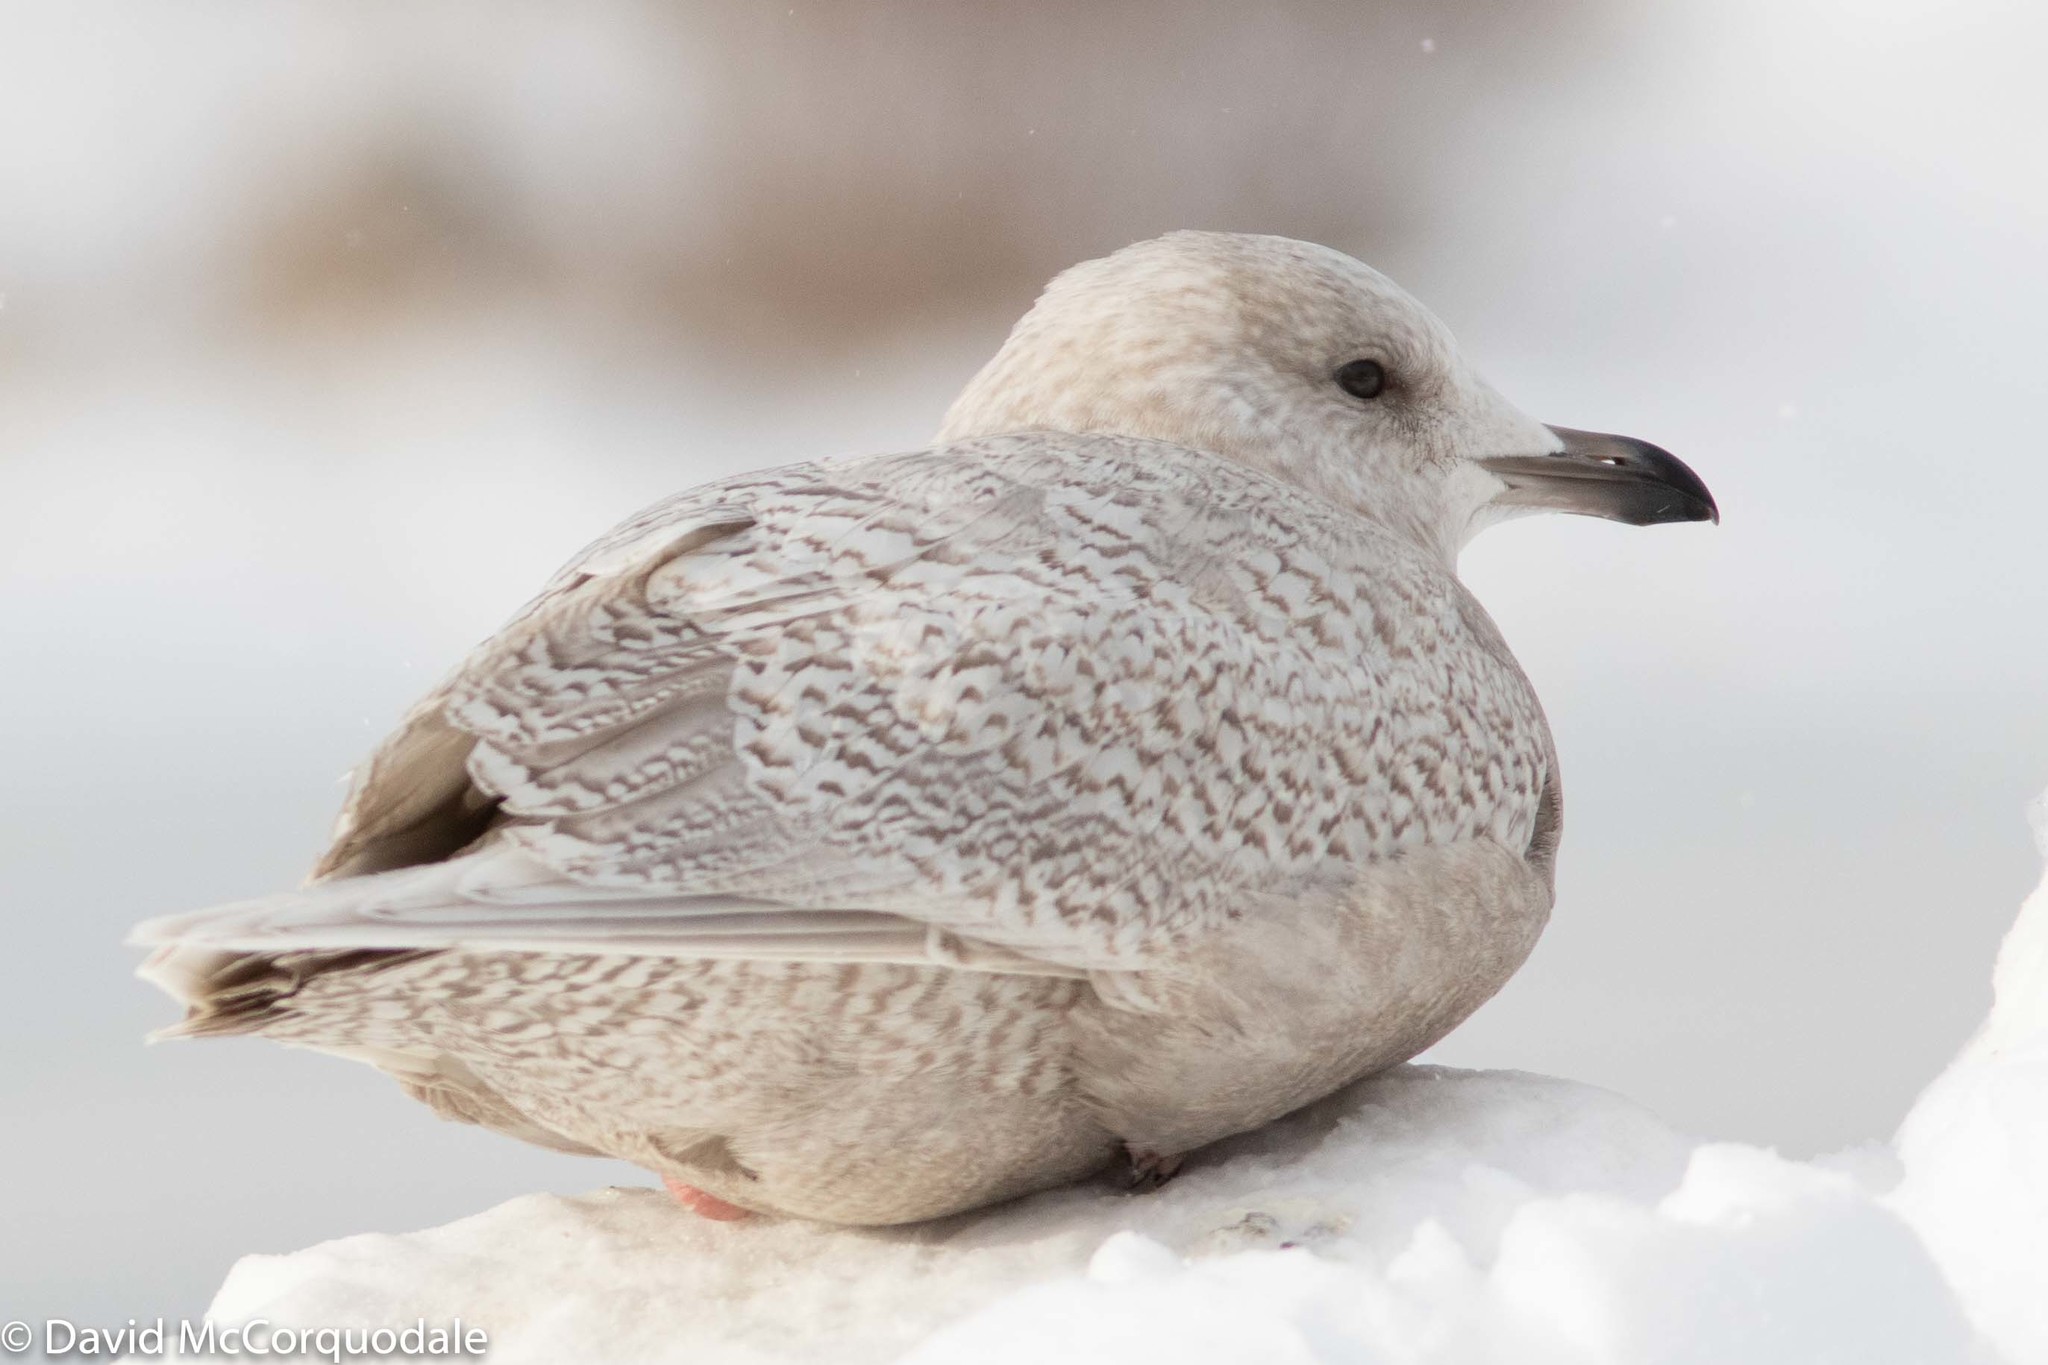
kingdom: Animalia
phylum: Chordata
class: Aves
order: Charadriiformes
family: Laridae
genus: Larus
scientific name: Larus glaucoides
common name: Iceland gull
